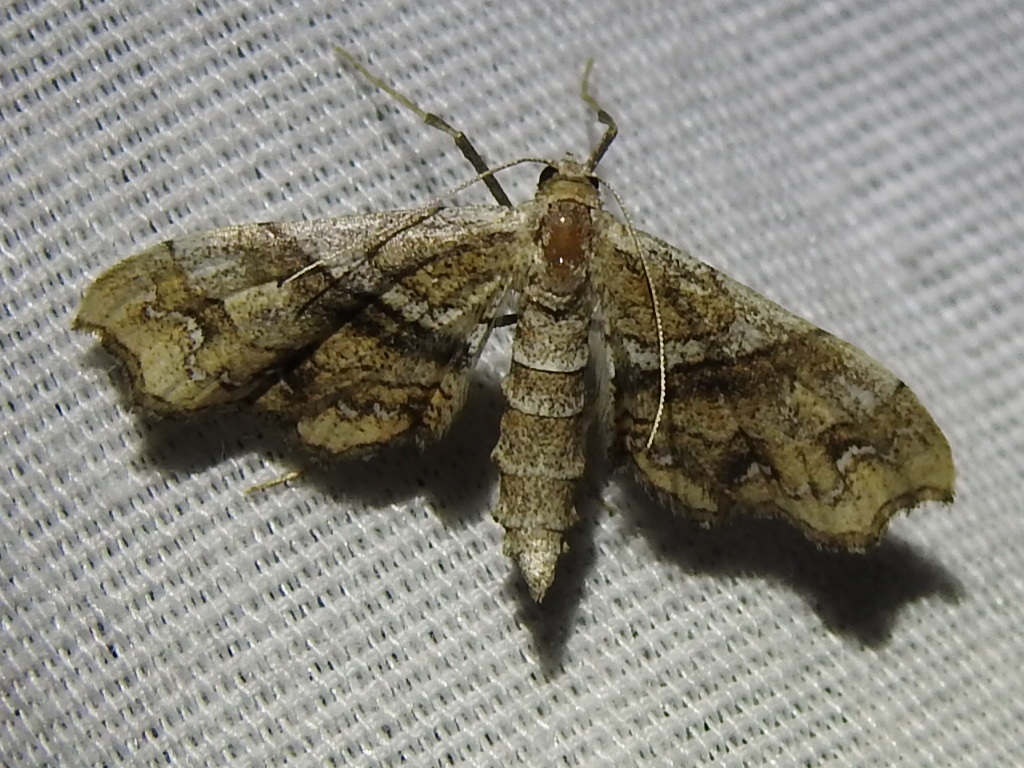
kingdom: Animalia
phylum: Arthropoda
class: Insecta
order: Lepidoptera
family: Geometridae
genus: Odontoptila
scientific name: Odontoptila obrimo
